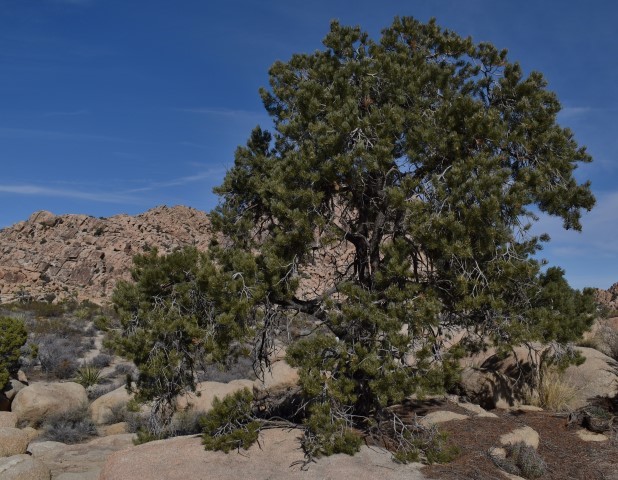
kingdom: Plantae
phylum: Tracheophyta
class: Pinopsida
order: Pinales
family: Pinaceae
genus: Pinus
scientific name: Pinus monophylla
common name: One-leaved nut pine
